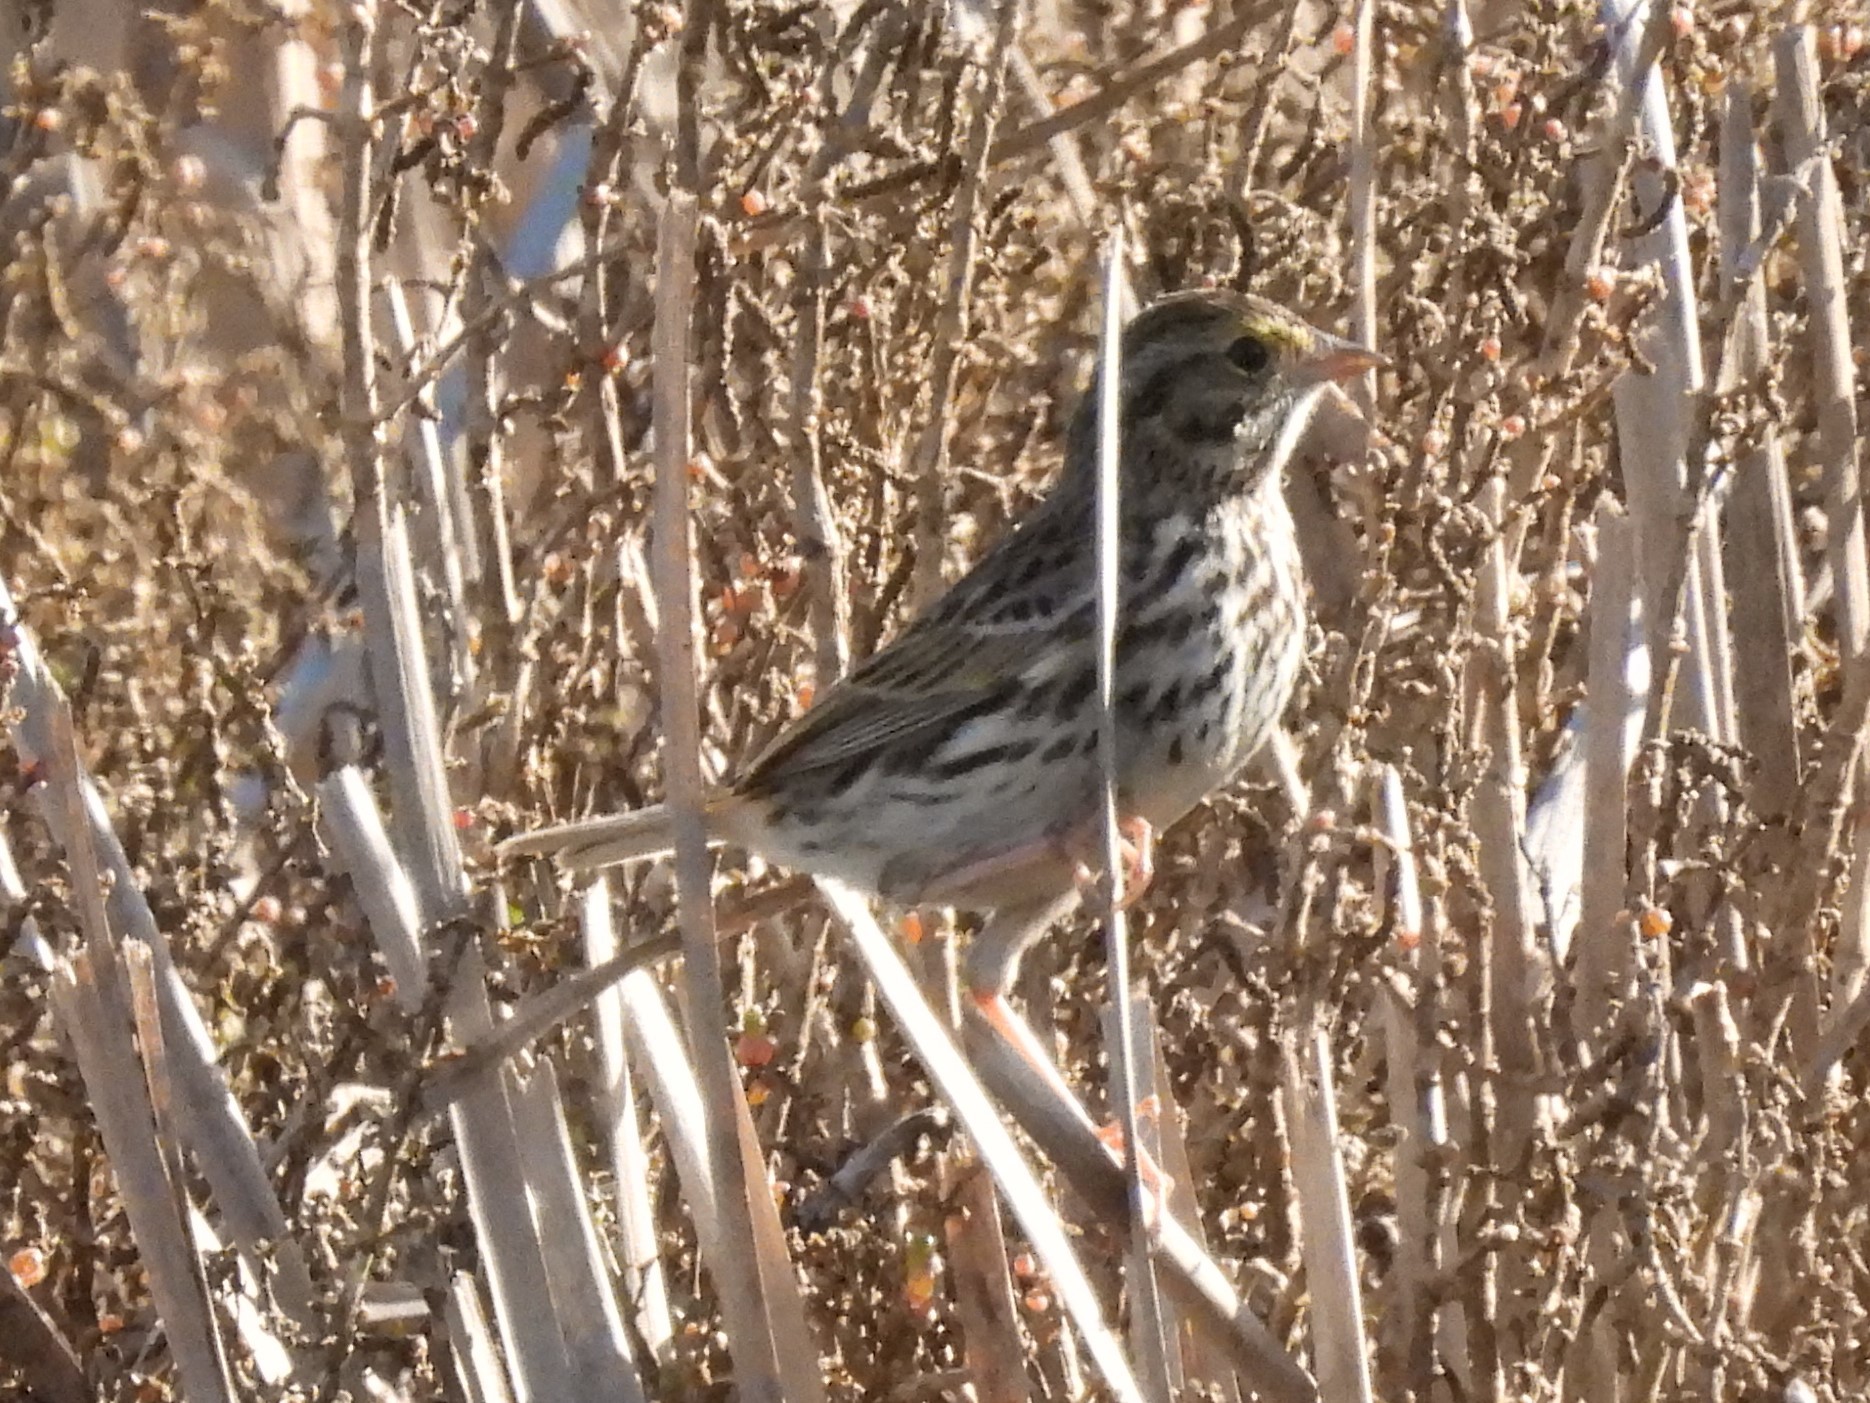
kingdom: Animalia
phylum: Chordata
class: Aves
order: Passeriformes
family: Passerellidae
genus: Passerculus
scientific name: Passerculus sandwichensis
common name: Savannah sparrow
